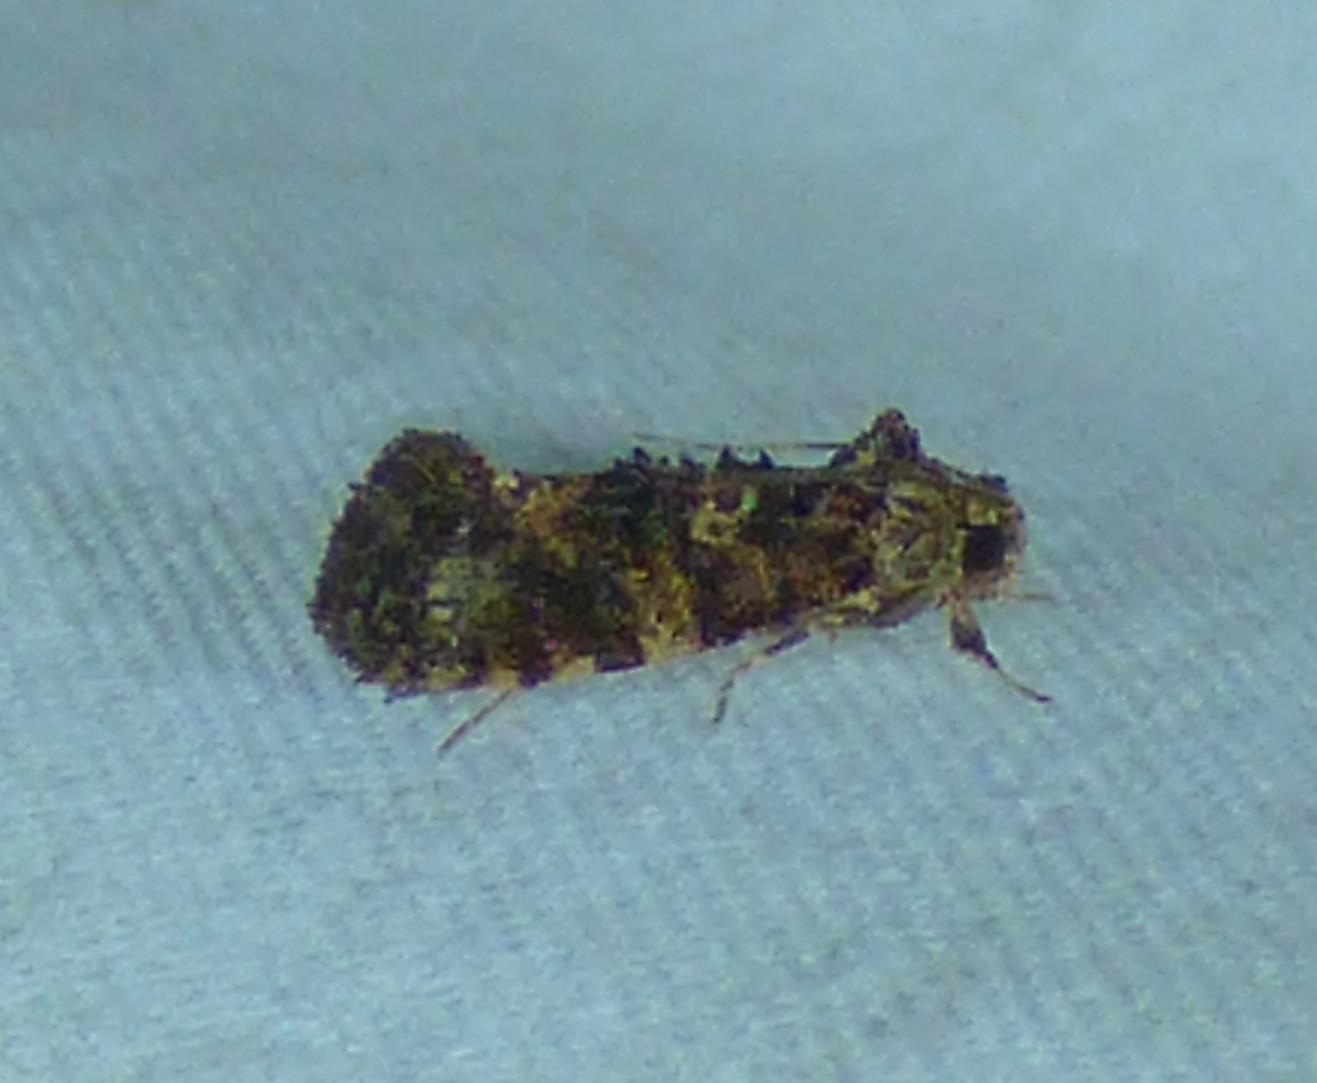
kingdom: Animalia
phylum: Arthropoda
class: Insecta
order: Lepidoptera
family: Tineidae
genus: Acrolophus
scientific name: Acrolophus cressoni
